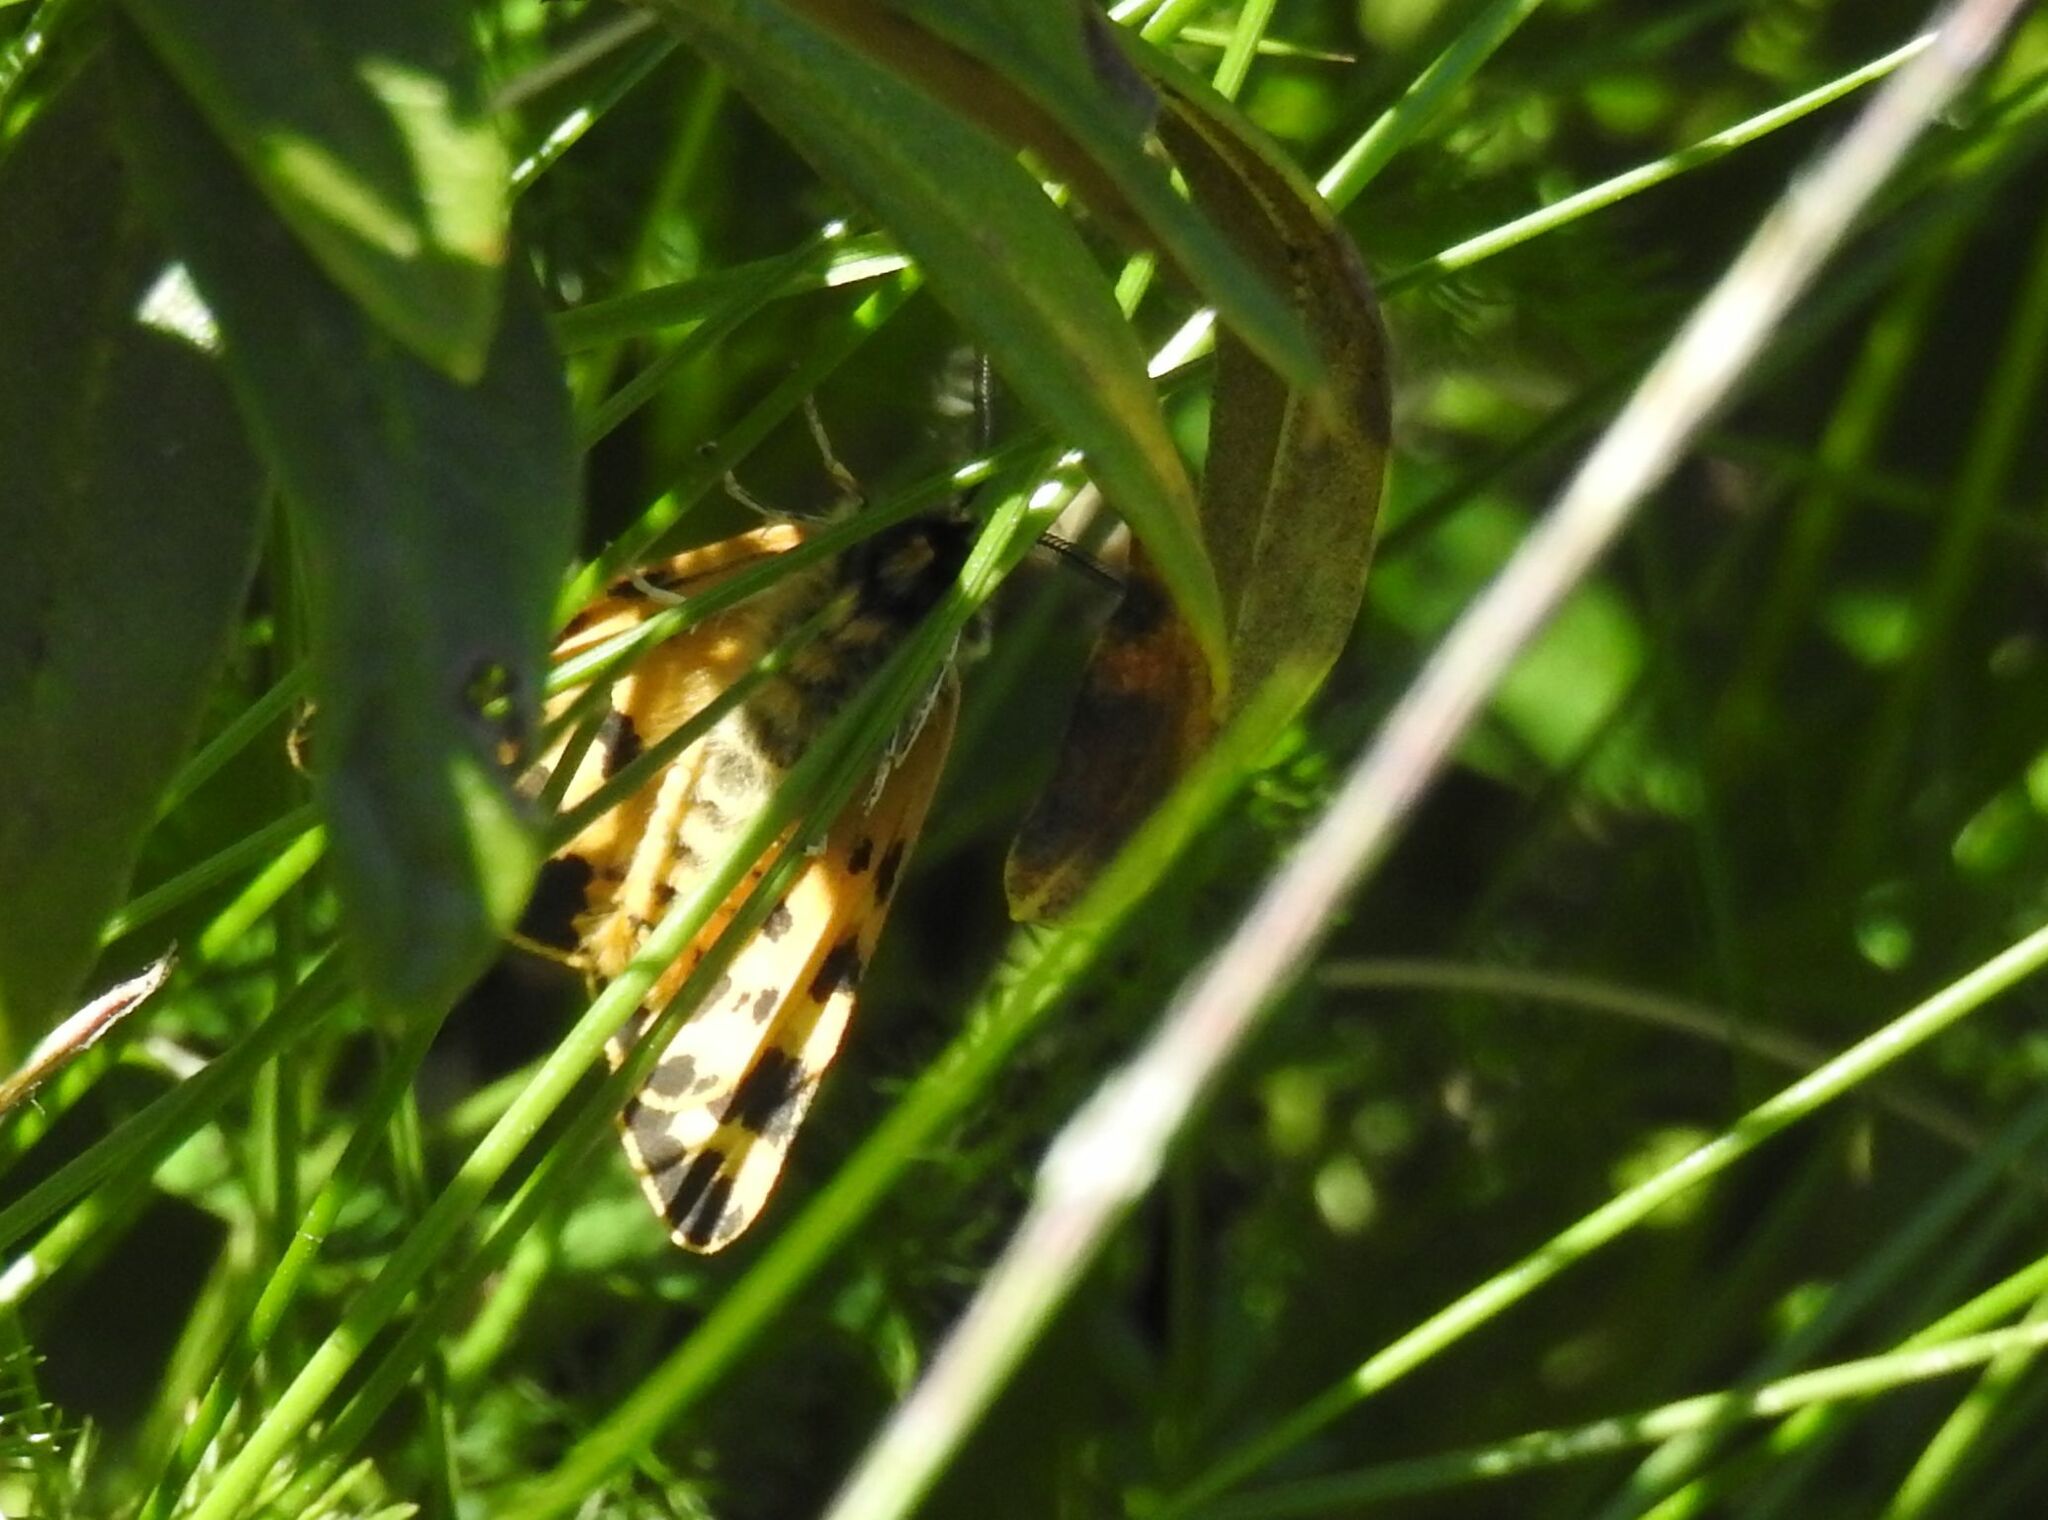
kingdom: Animalia
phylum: Arthropoda
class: Insecta
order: Lepidoptera
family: Erebidae
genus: Parasemia
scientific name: Parasemia plantaginis
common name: Wood tiger
